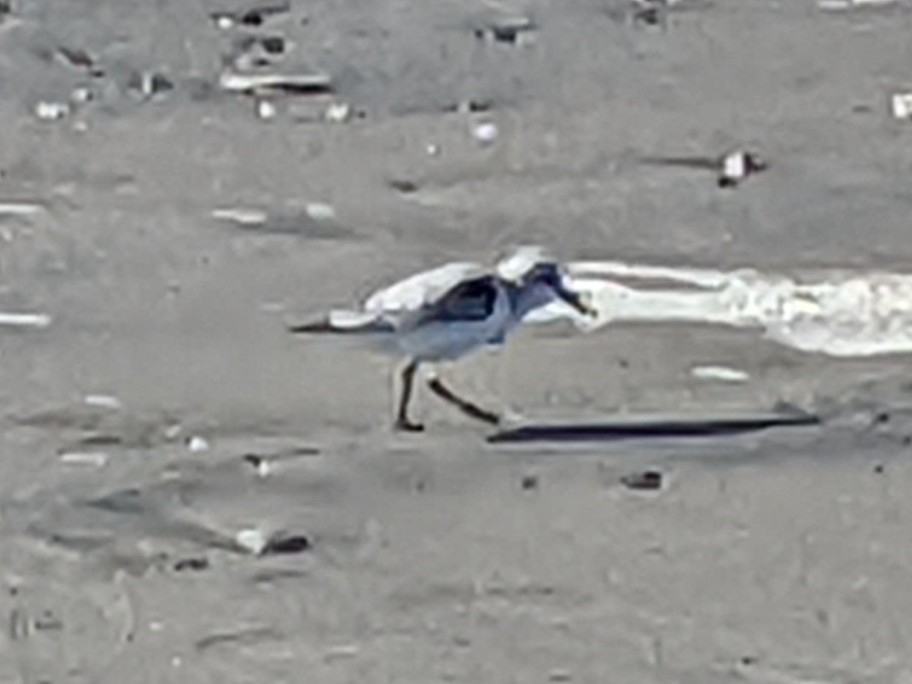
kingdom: Animalia
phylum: Chordata
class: Aves
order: Charadriiformes
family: Scolopacidae
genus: Calidris
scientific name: Calidris alba
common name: Sanderling
